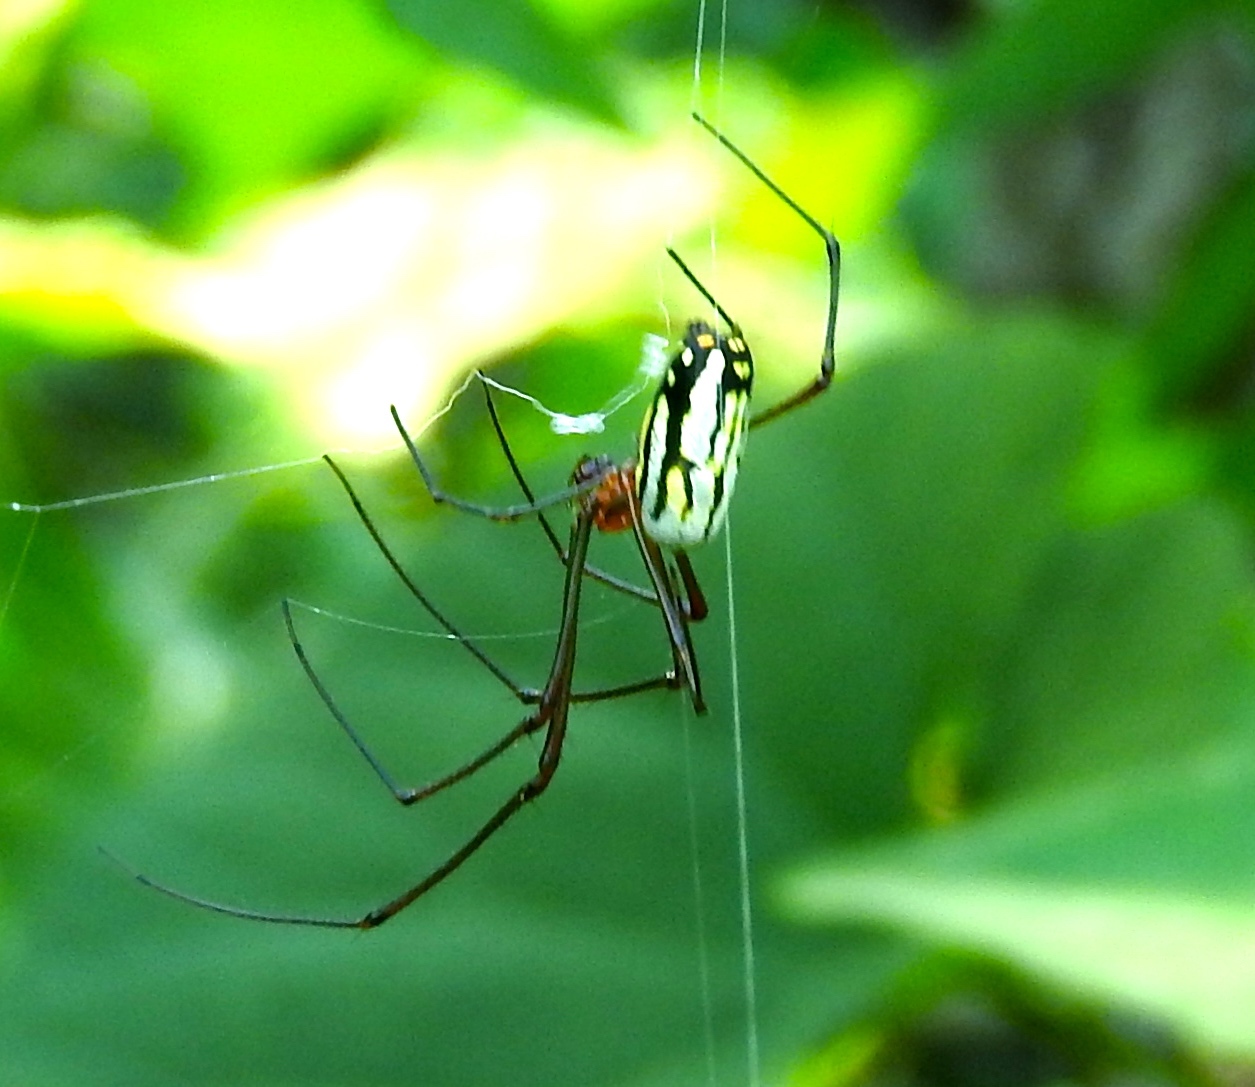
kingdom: Animalia
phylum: Arthropoda
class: Arachnida
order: Araneae
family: Tetragnathidae
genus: Leucauge
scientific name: Leucauge
